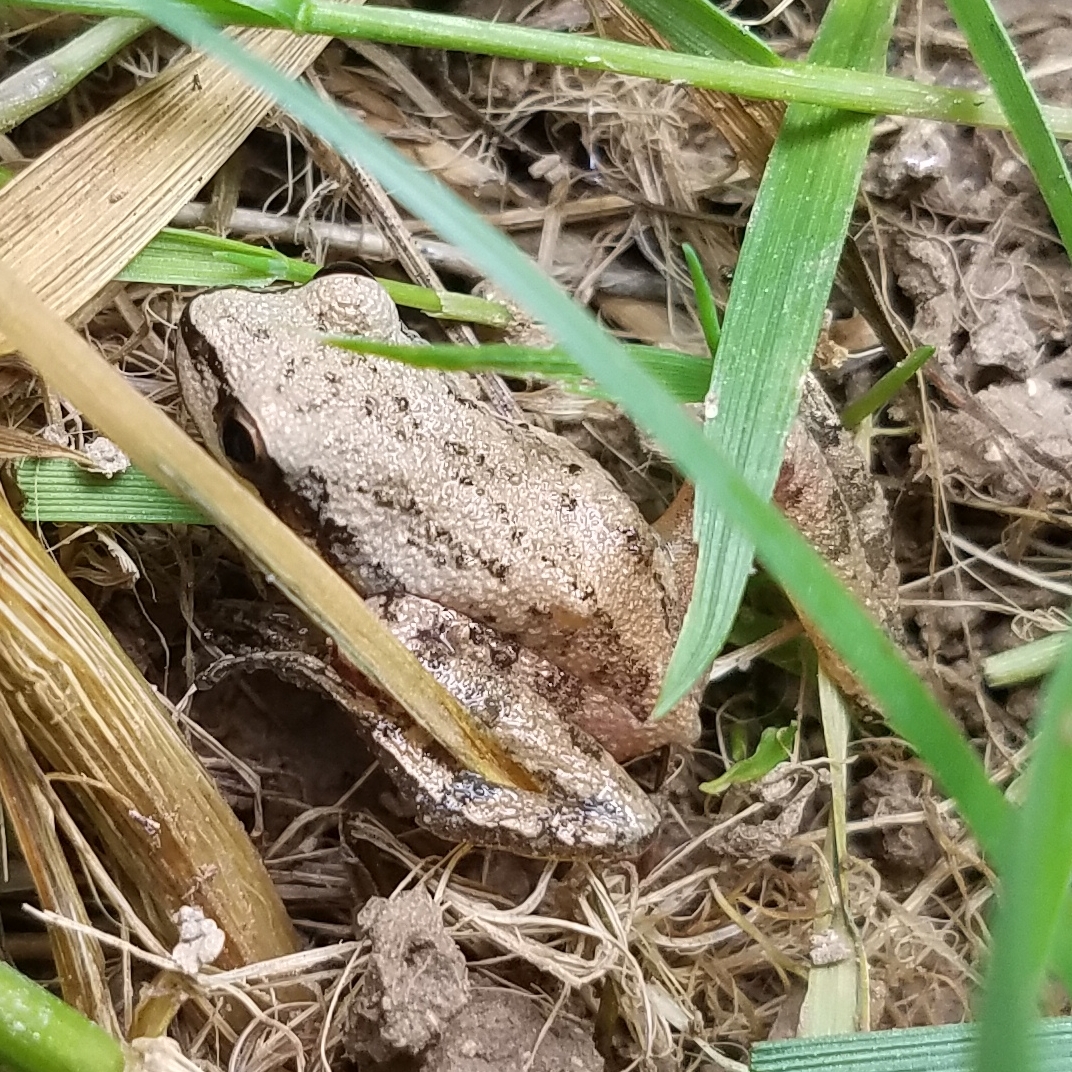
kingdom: Animalia
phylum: Chordata
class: Amphibia
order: Anura
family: Hylidae
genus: Pseudacris
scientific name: Pseudacris feriarum
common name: Upland chorus frog
